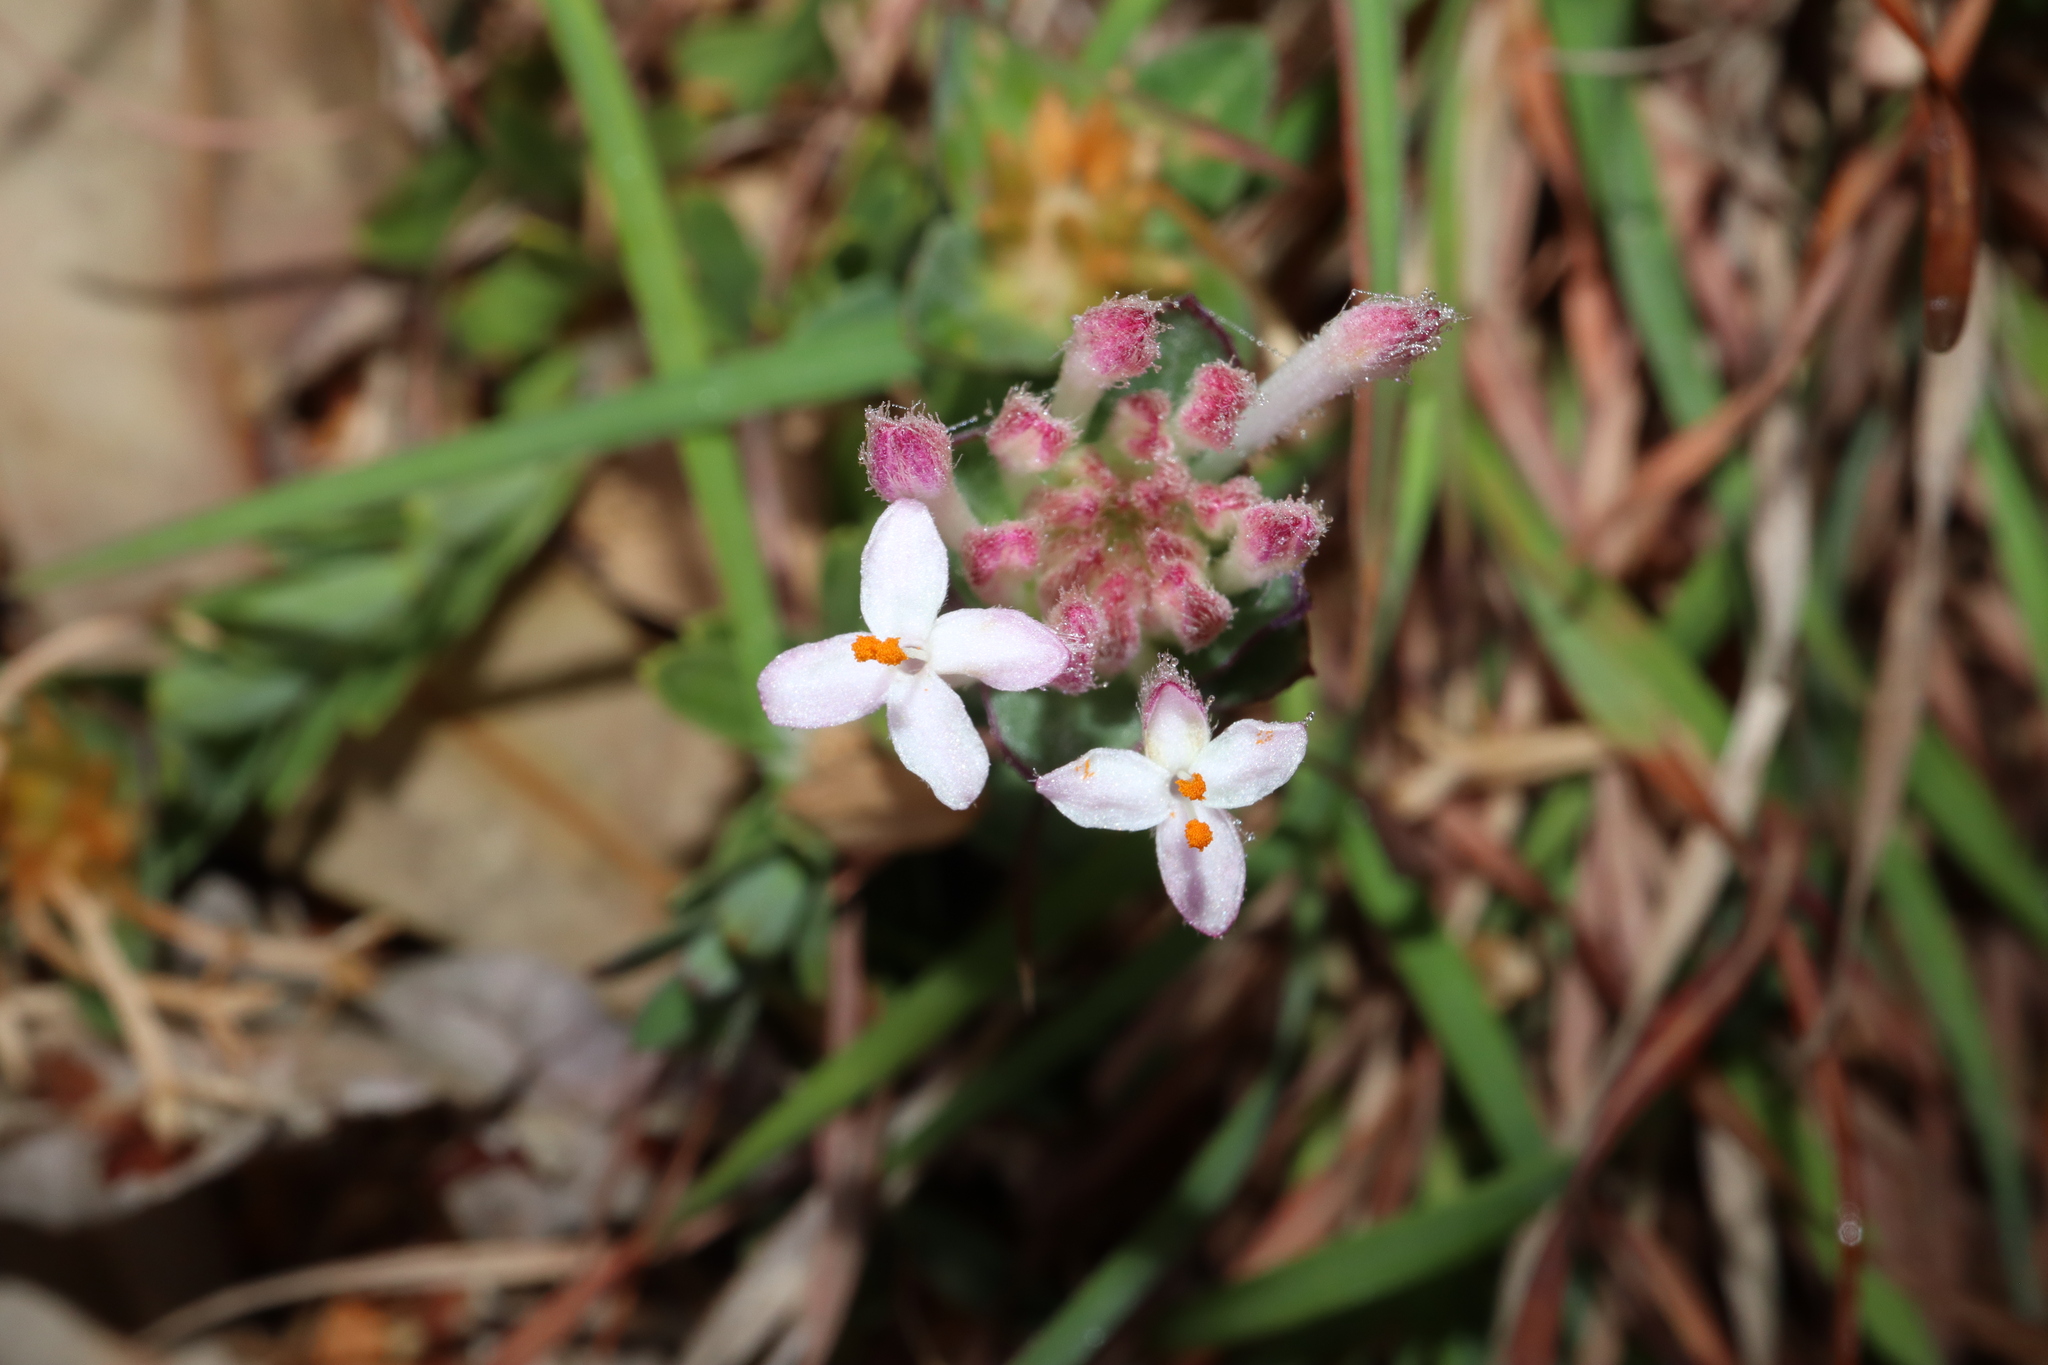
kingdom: Plantae
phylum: Tracheophyta
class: Magnoliopsida
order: Malvales
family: Thymelaeaceae
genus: Pimelea
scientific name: Pimelea linifolia
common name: Queen-of-the-bush
